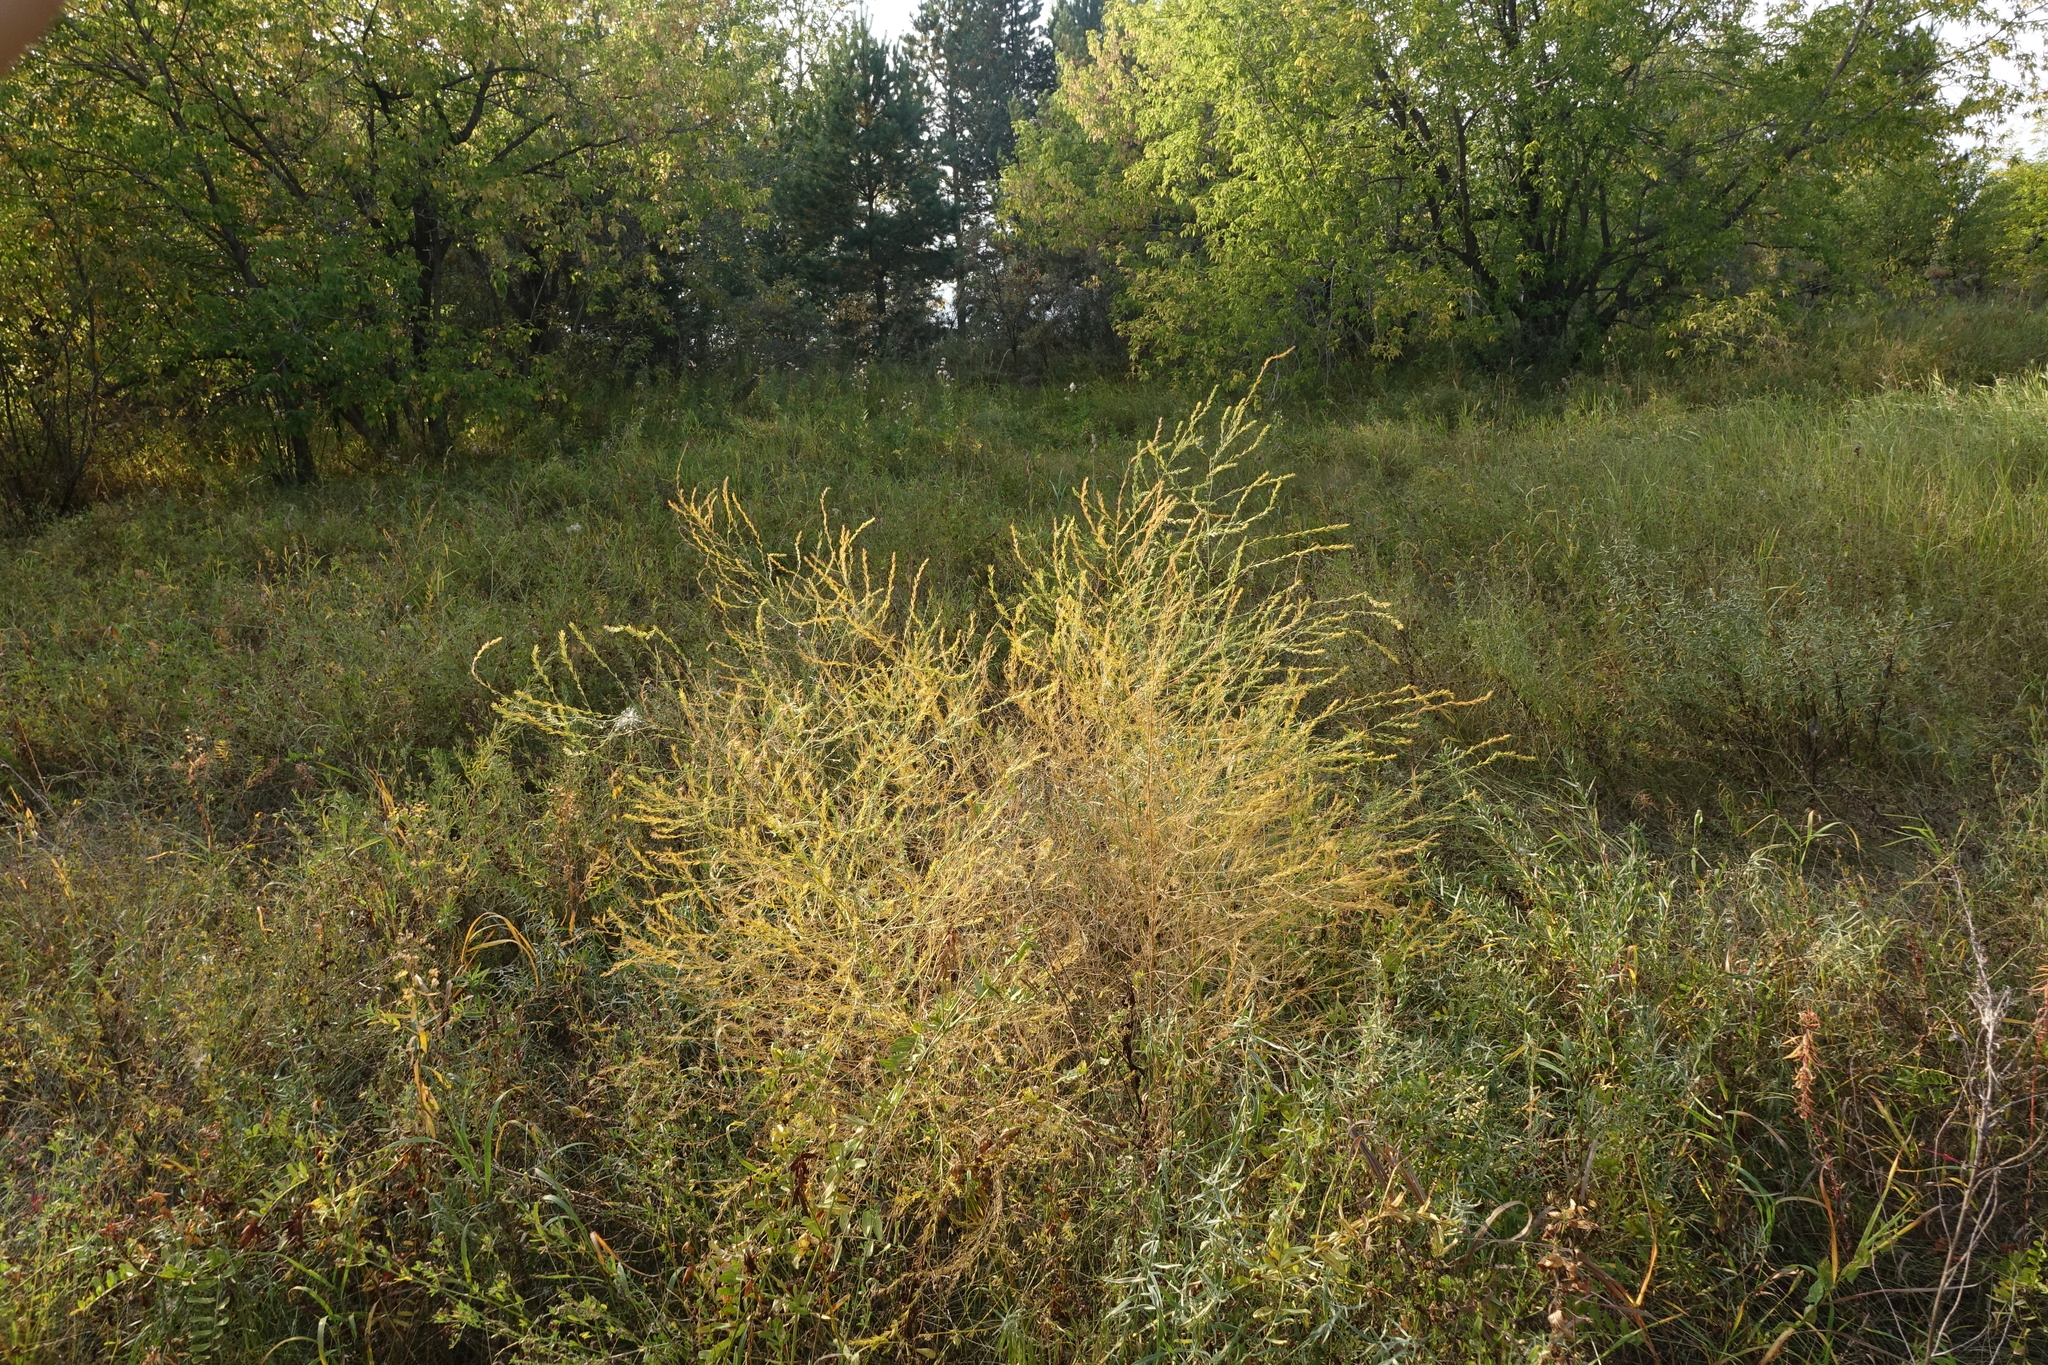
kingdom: Plantae
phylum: Tracheophyta
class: Liliopsida
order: Asparagales
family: Asparagaceae
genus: Asparagus
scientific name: Asparagus officinalis
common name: Garden asparagus
